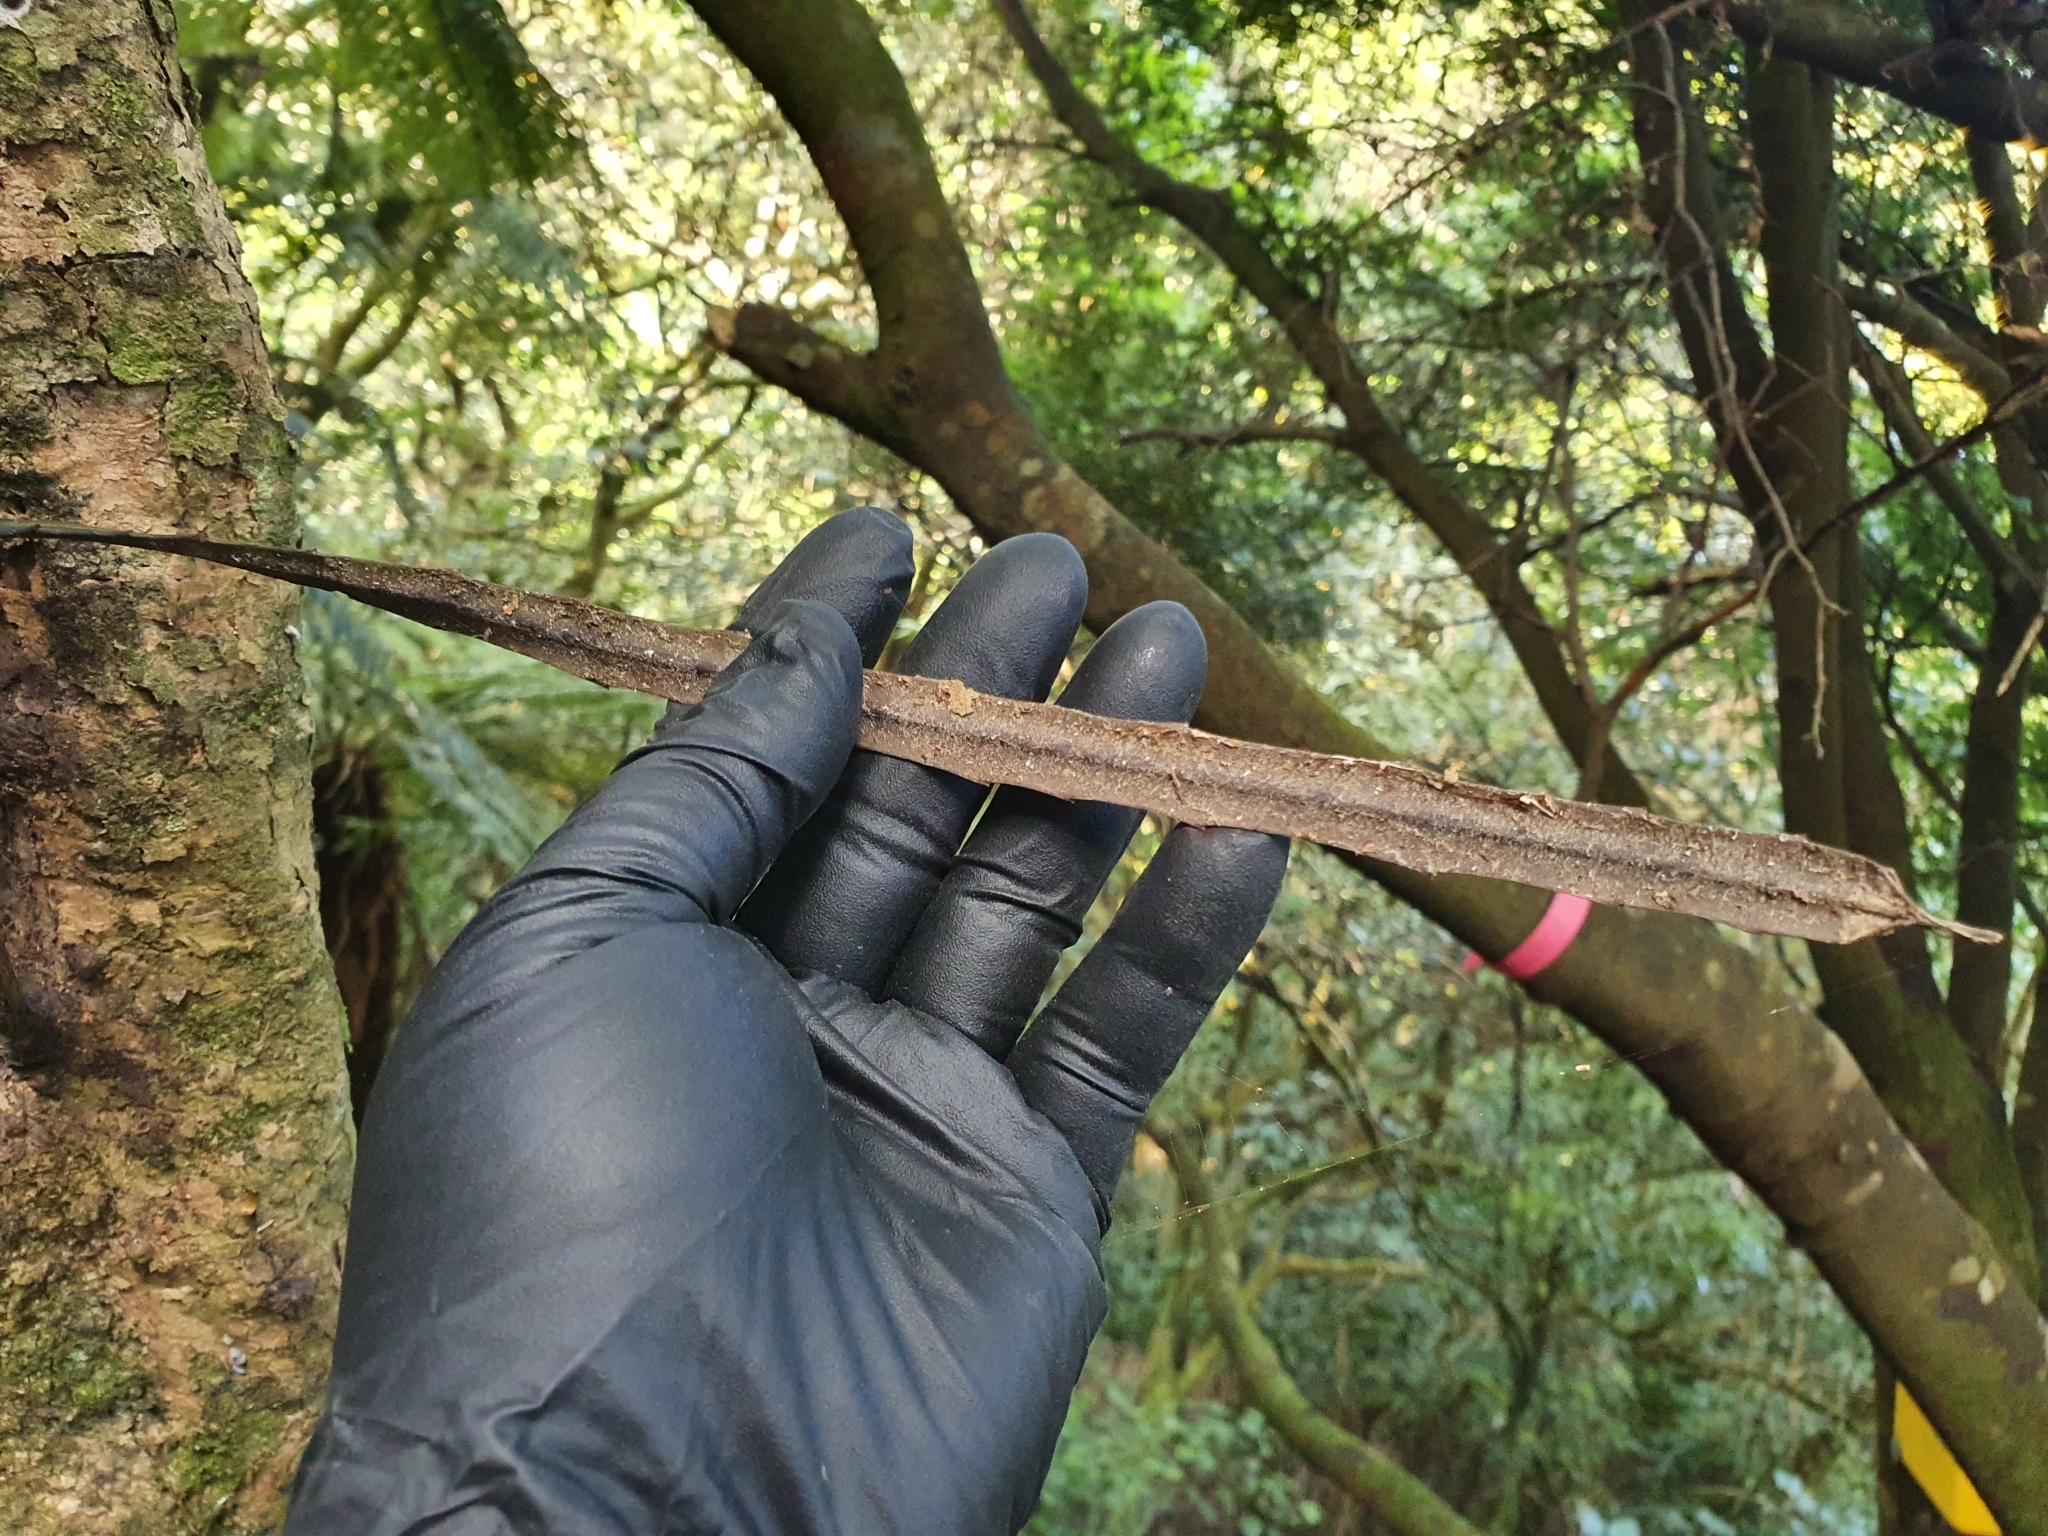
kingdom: Plantae
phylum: Tracheophyta
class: Magnoliopsida
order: Apiales
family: Araliaceae
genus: Pseudopanax
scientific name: Pseudopanax crassifolius
